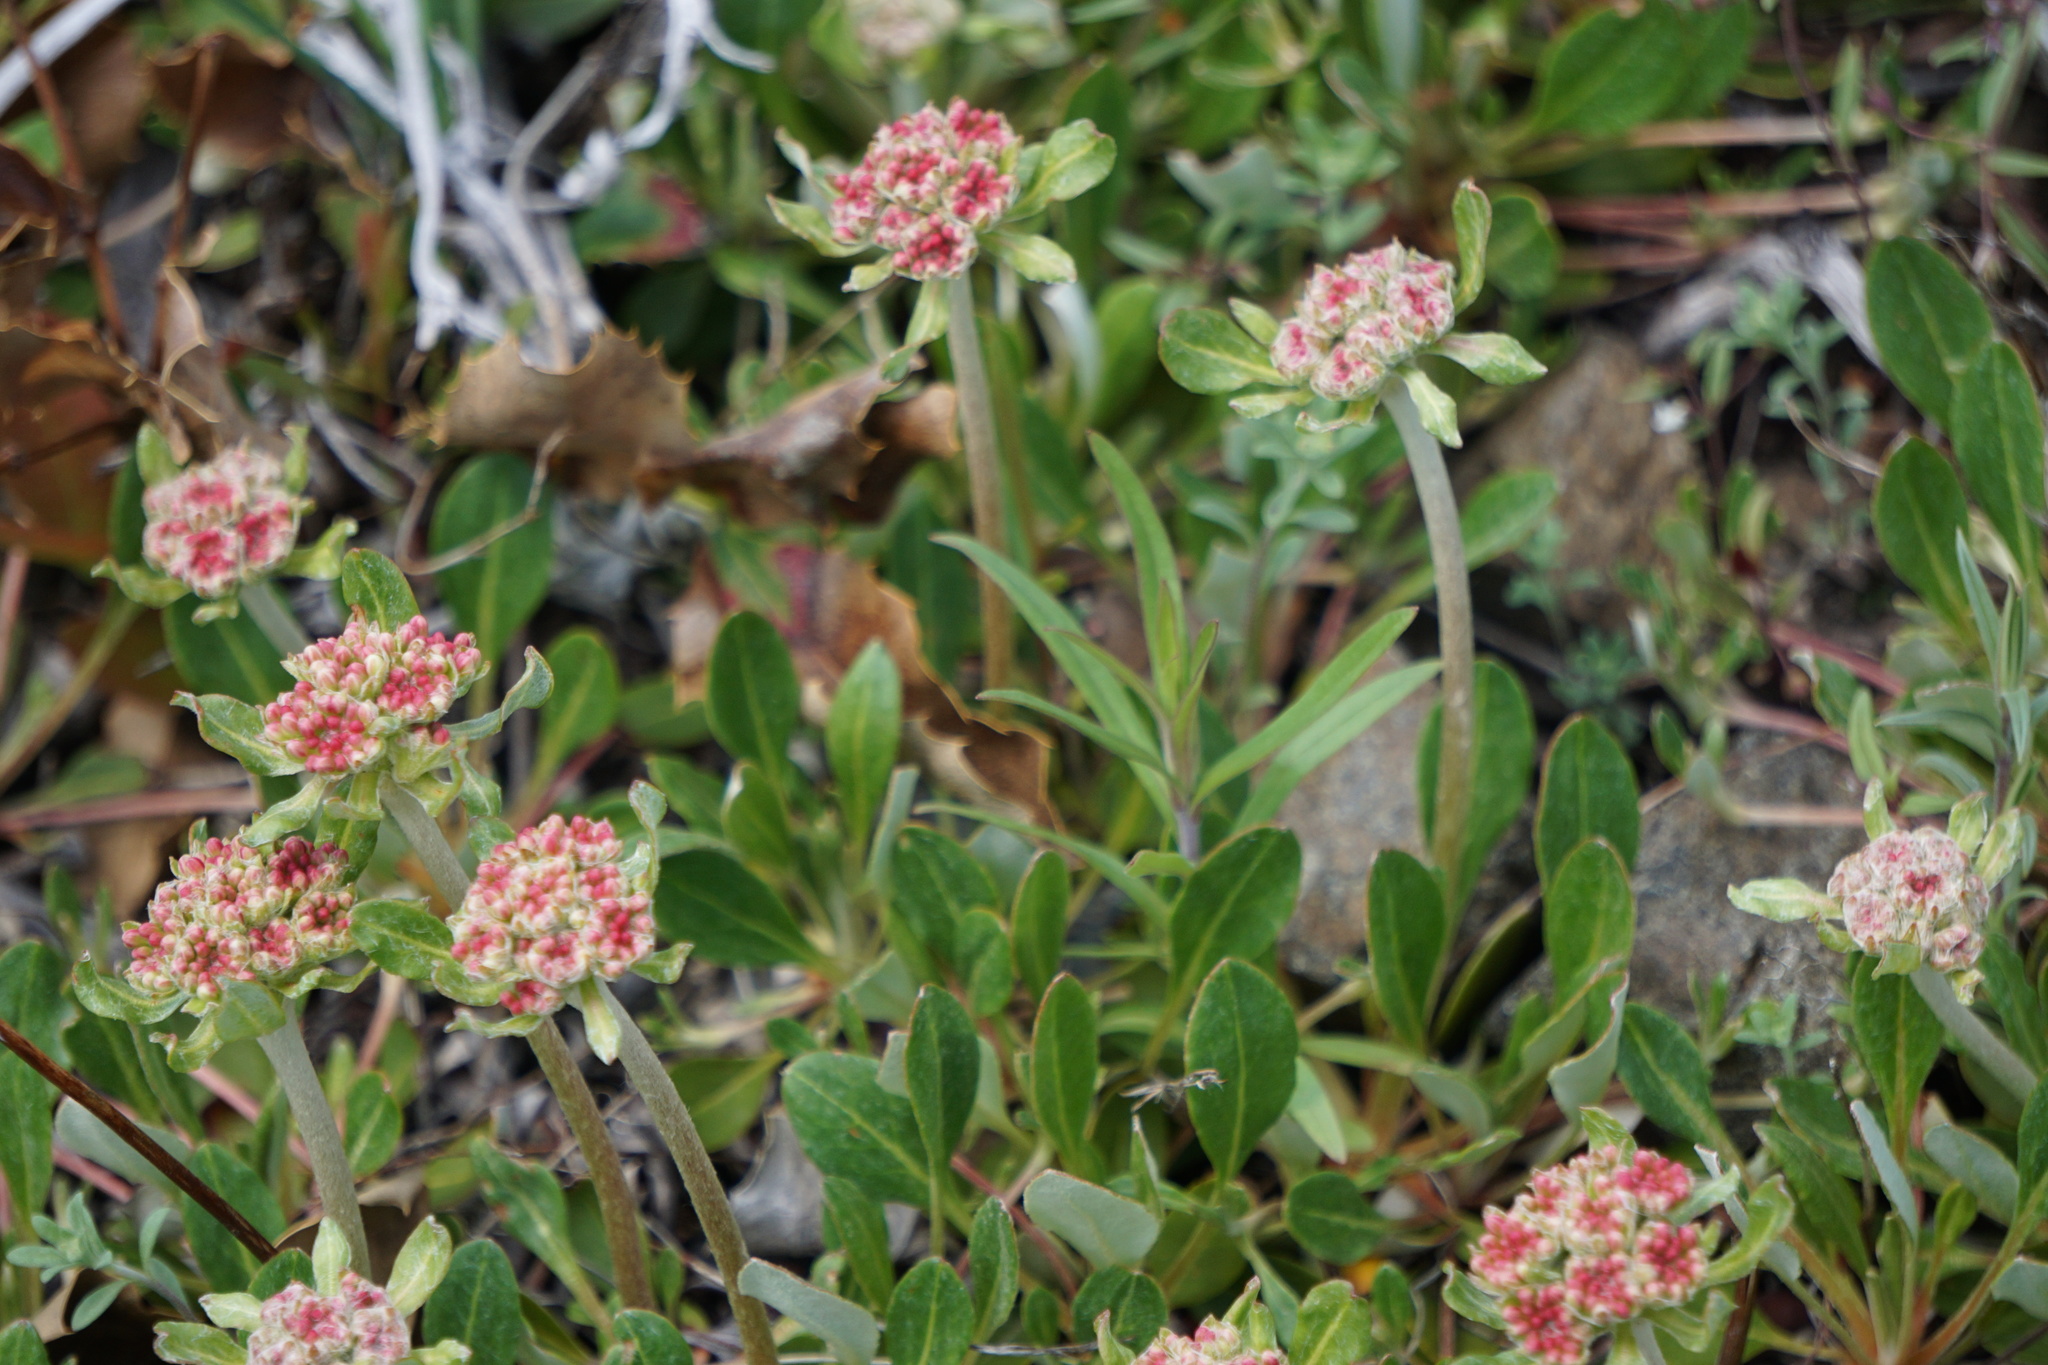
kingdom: Plantae
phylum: Tracheophyta
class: Magnoliopsida
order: Caryophyllales
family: Polygonaceae
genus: Eriogonum
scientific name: Eriogonum umbellatum
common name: Sulfur-buckwheat
